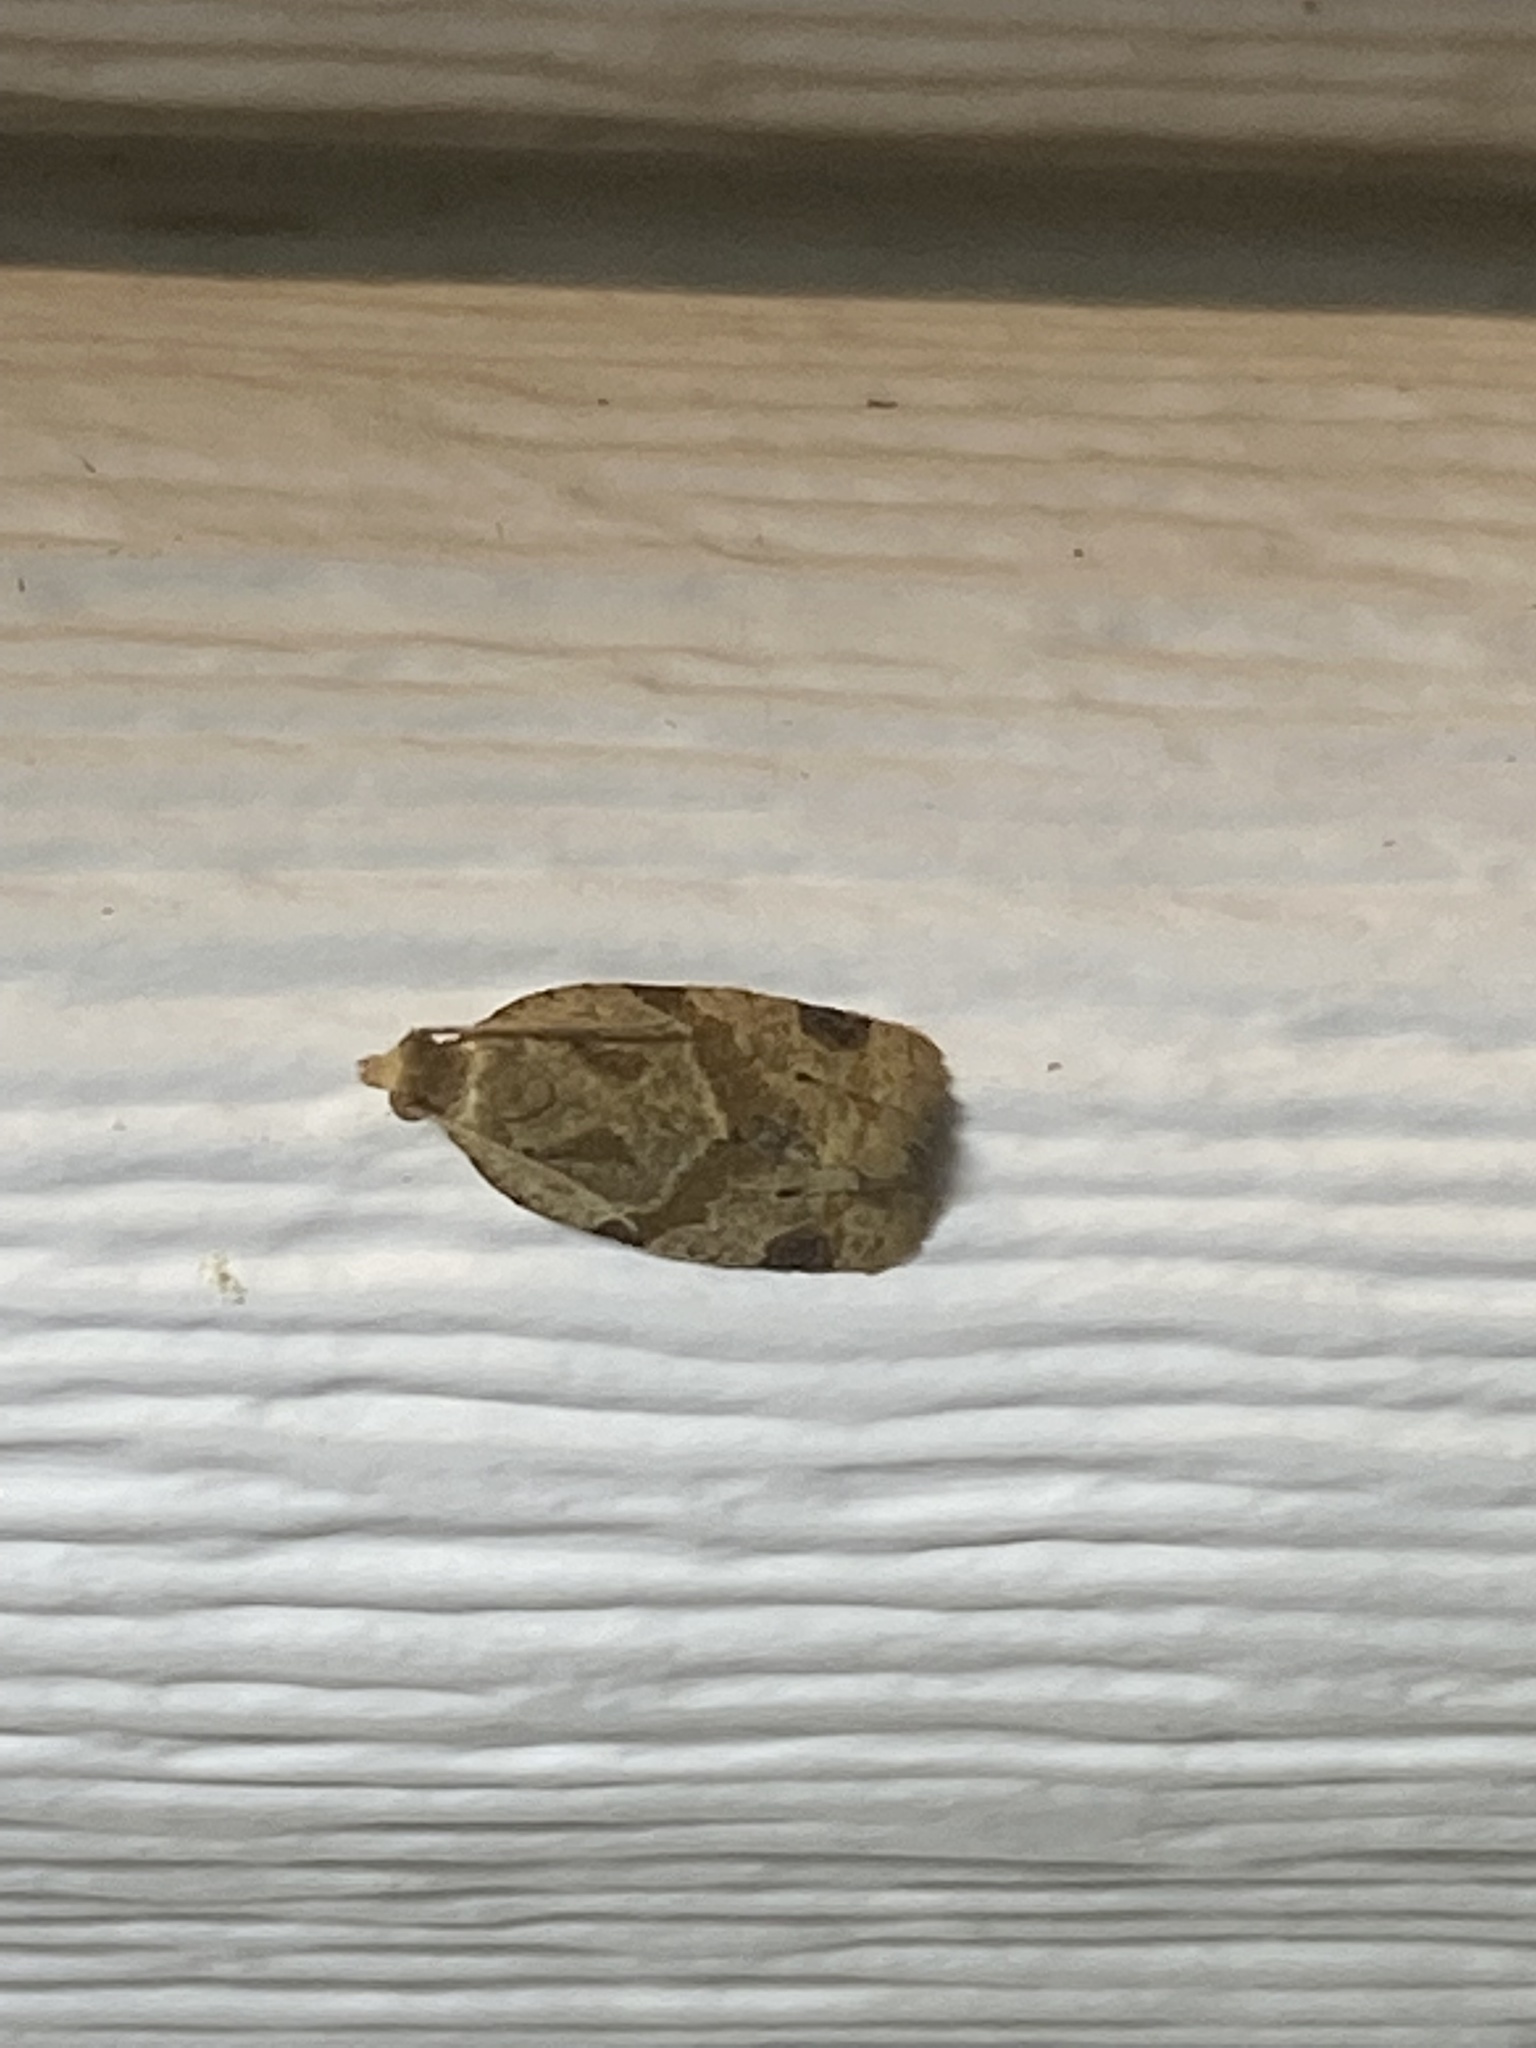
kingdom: Animalia
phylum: Arthropoda
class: Insecta
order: Lepidoptera
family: Tortricidae
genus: Clepsis
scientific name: Clepsis peritana
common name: Garden tortrix
